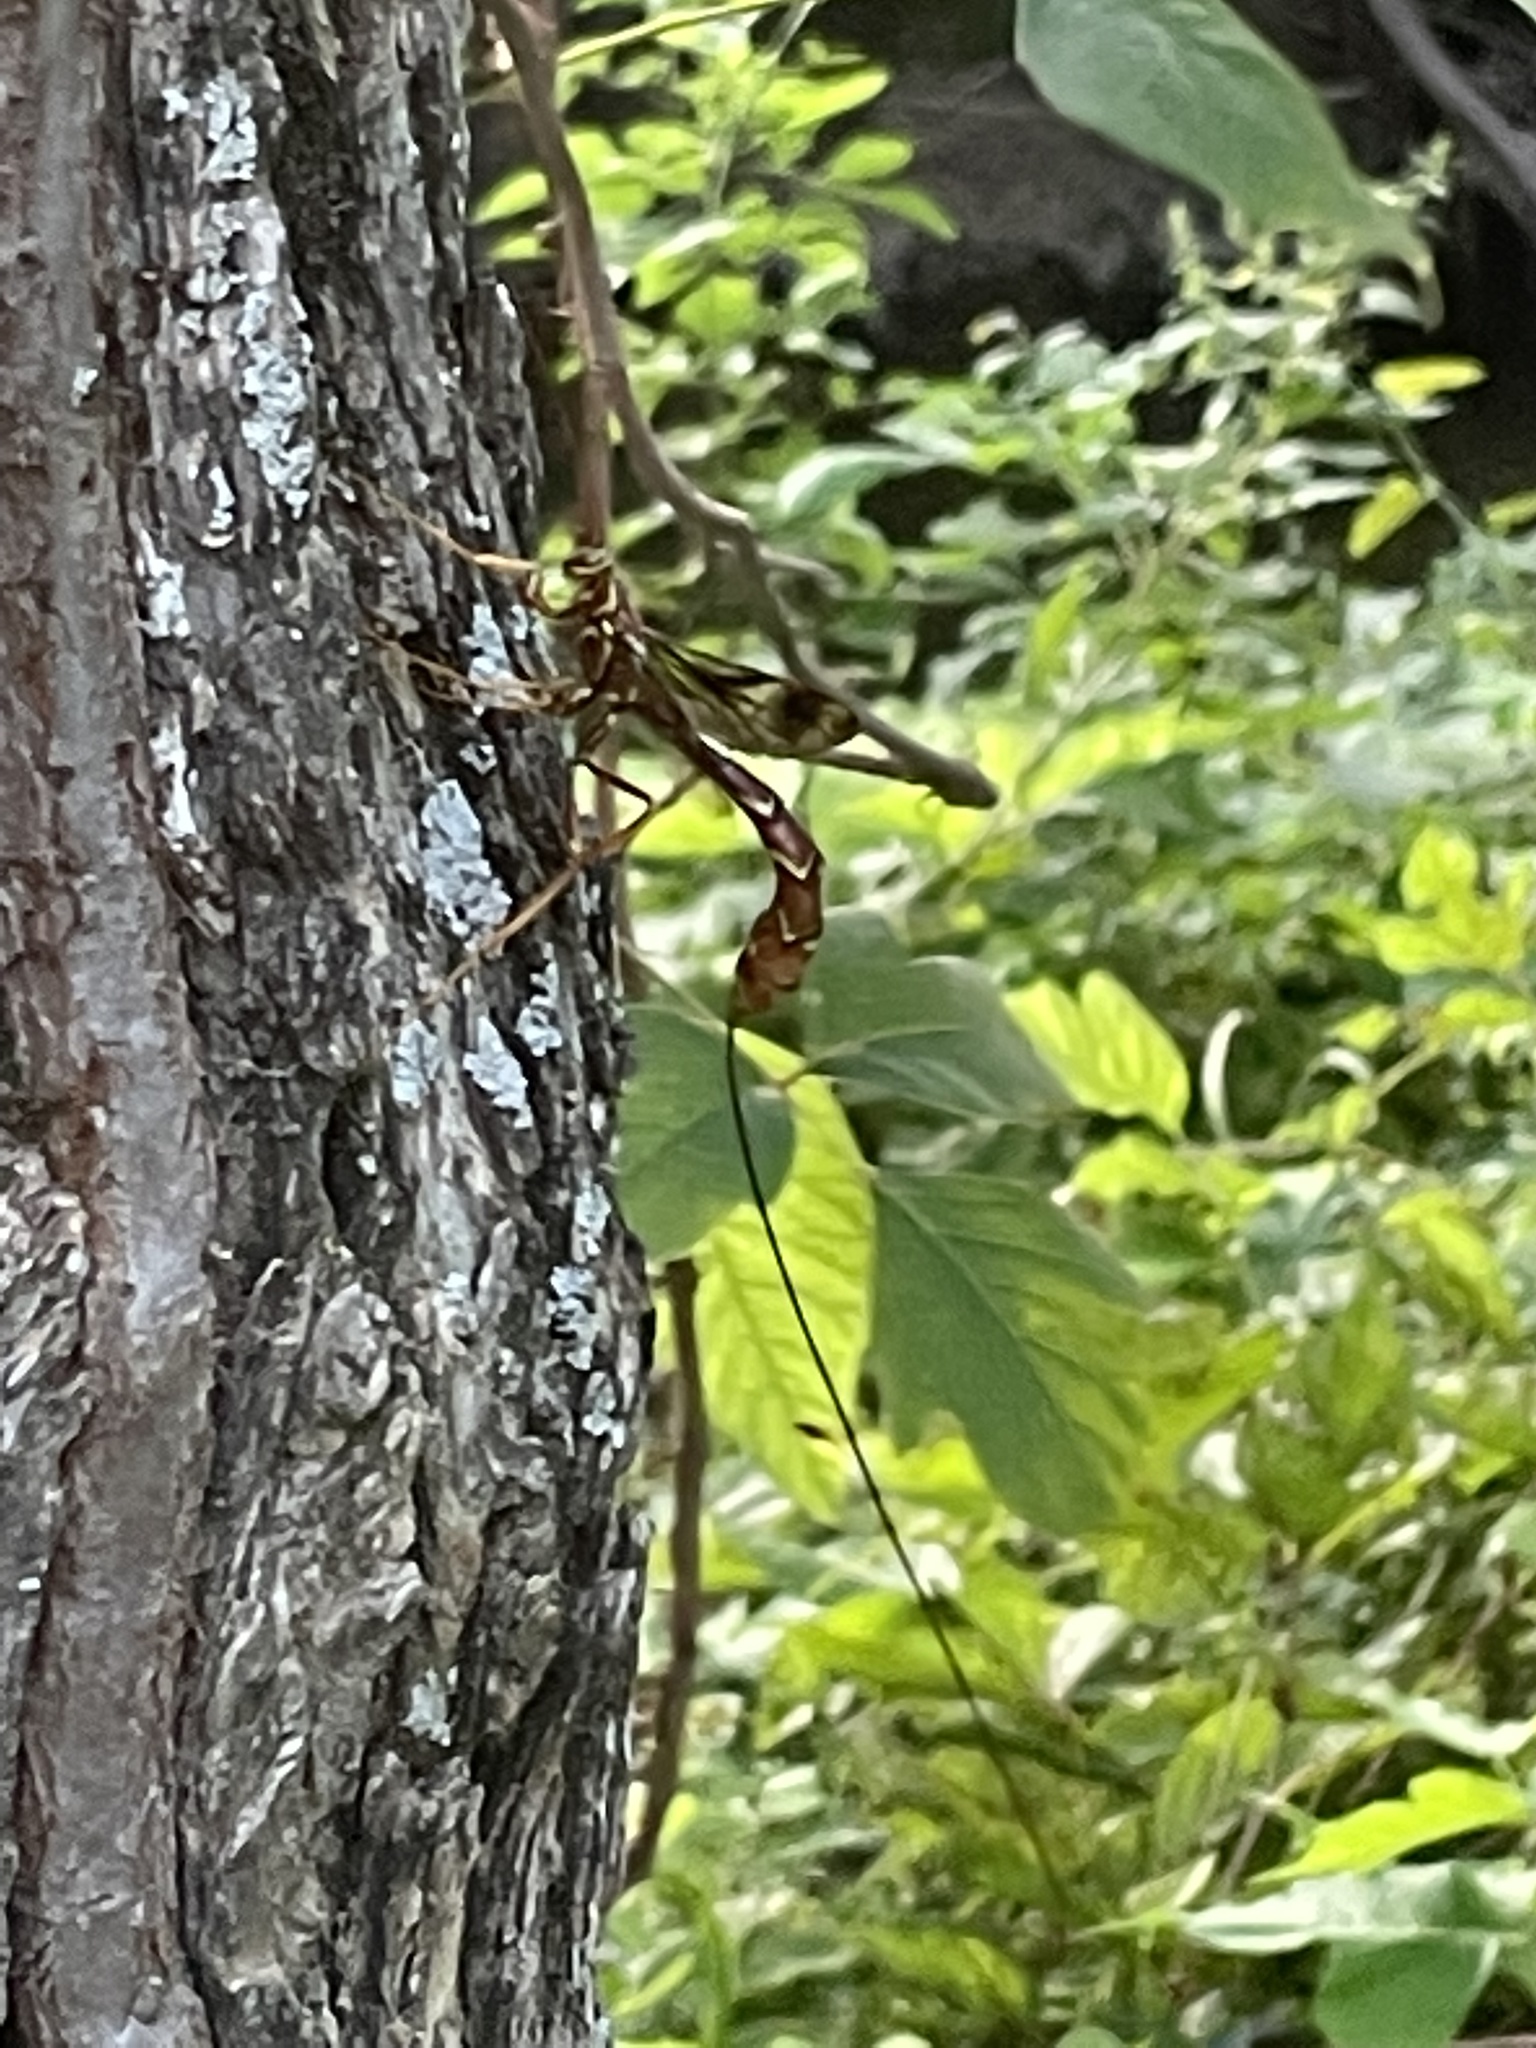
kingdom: Animalia
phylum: Arthropoda
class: Insecta
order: Hymenoptera
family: Ichneumonidae
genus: Megarhyssa
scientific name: Megarhyssa macrura
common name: Long-tailed giant ichneumonid wasp
